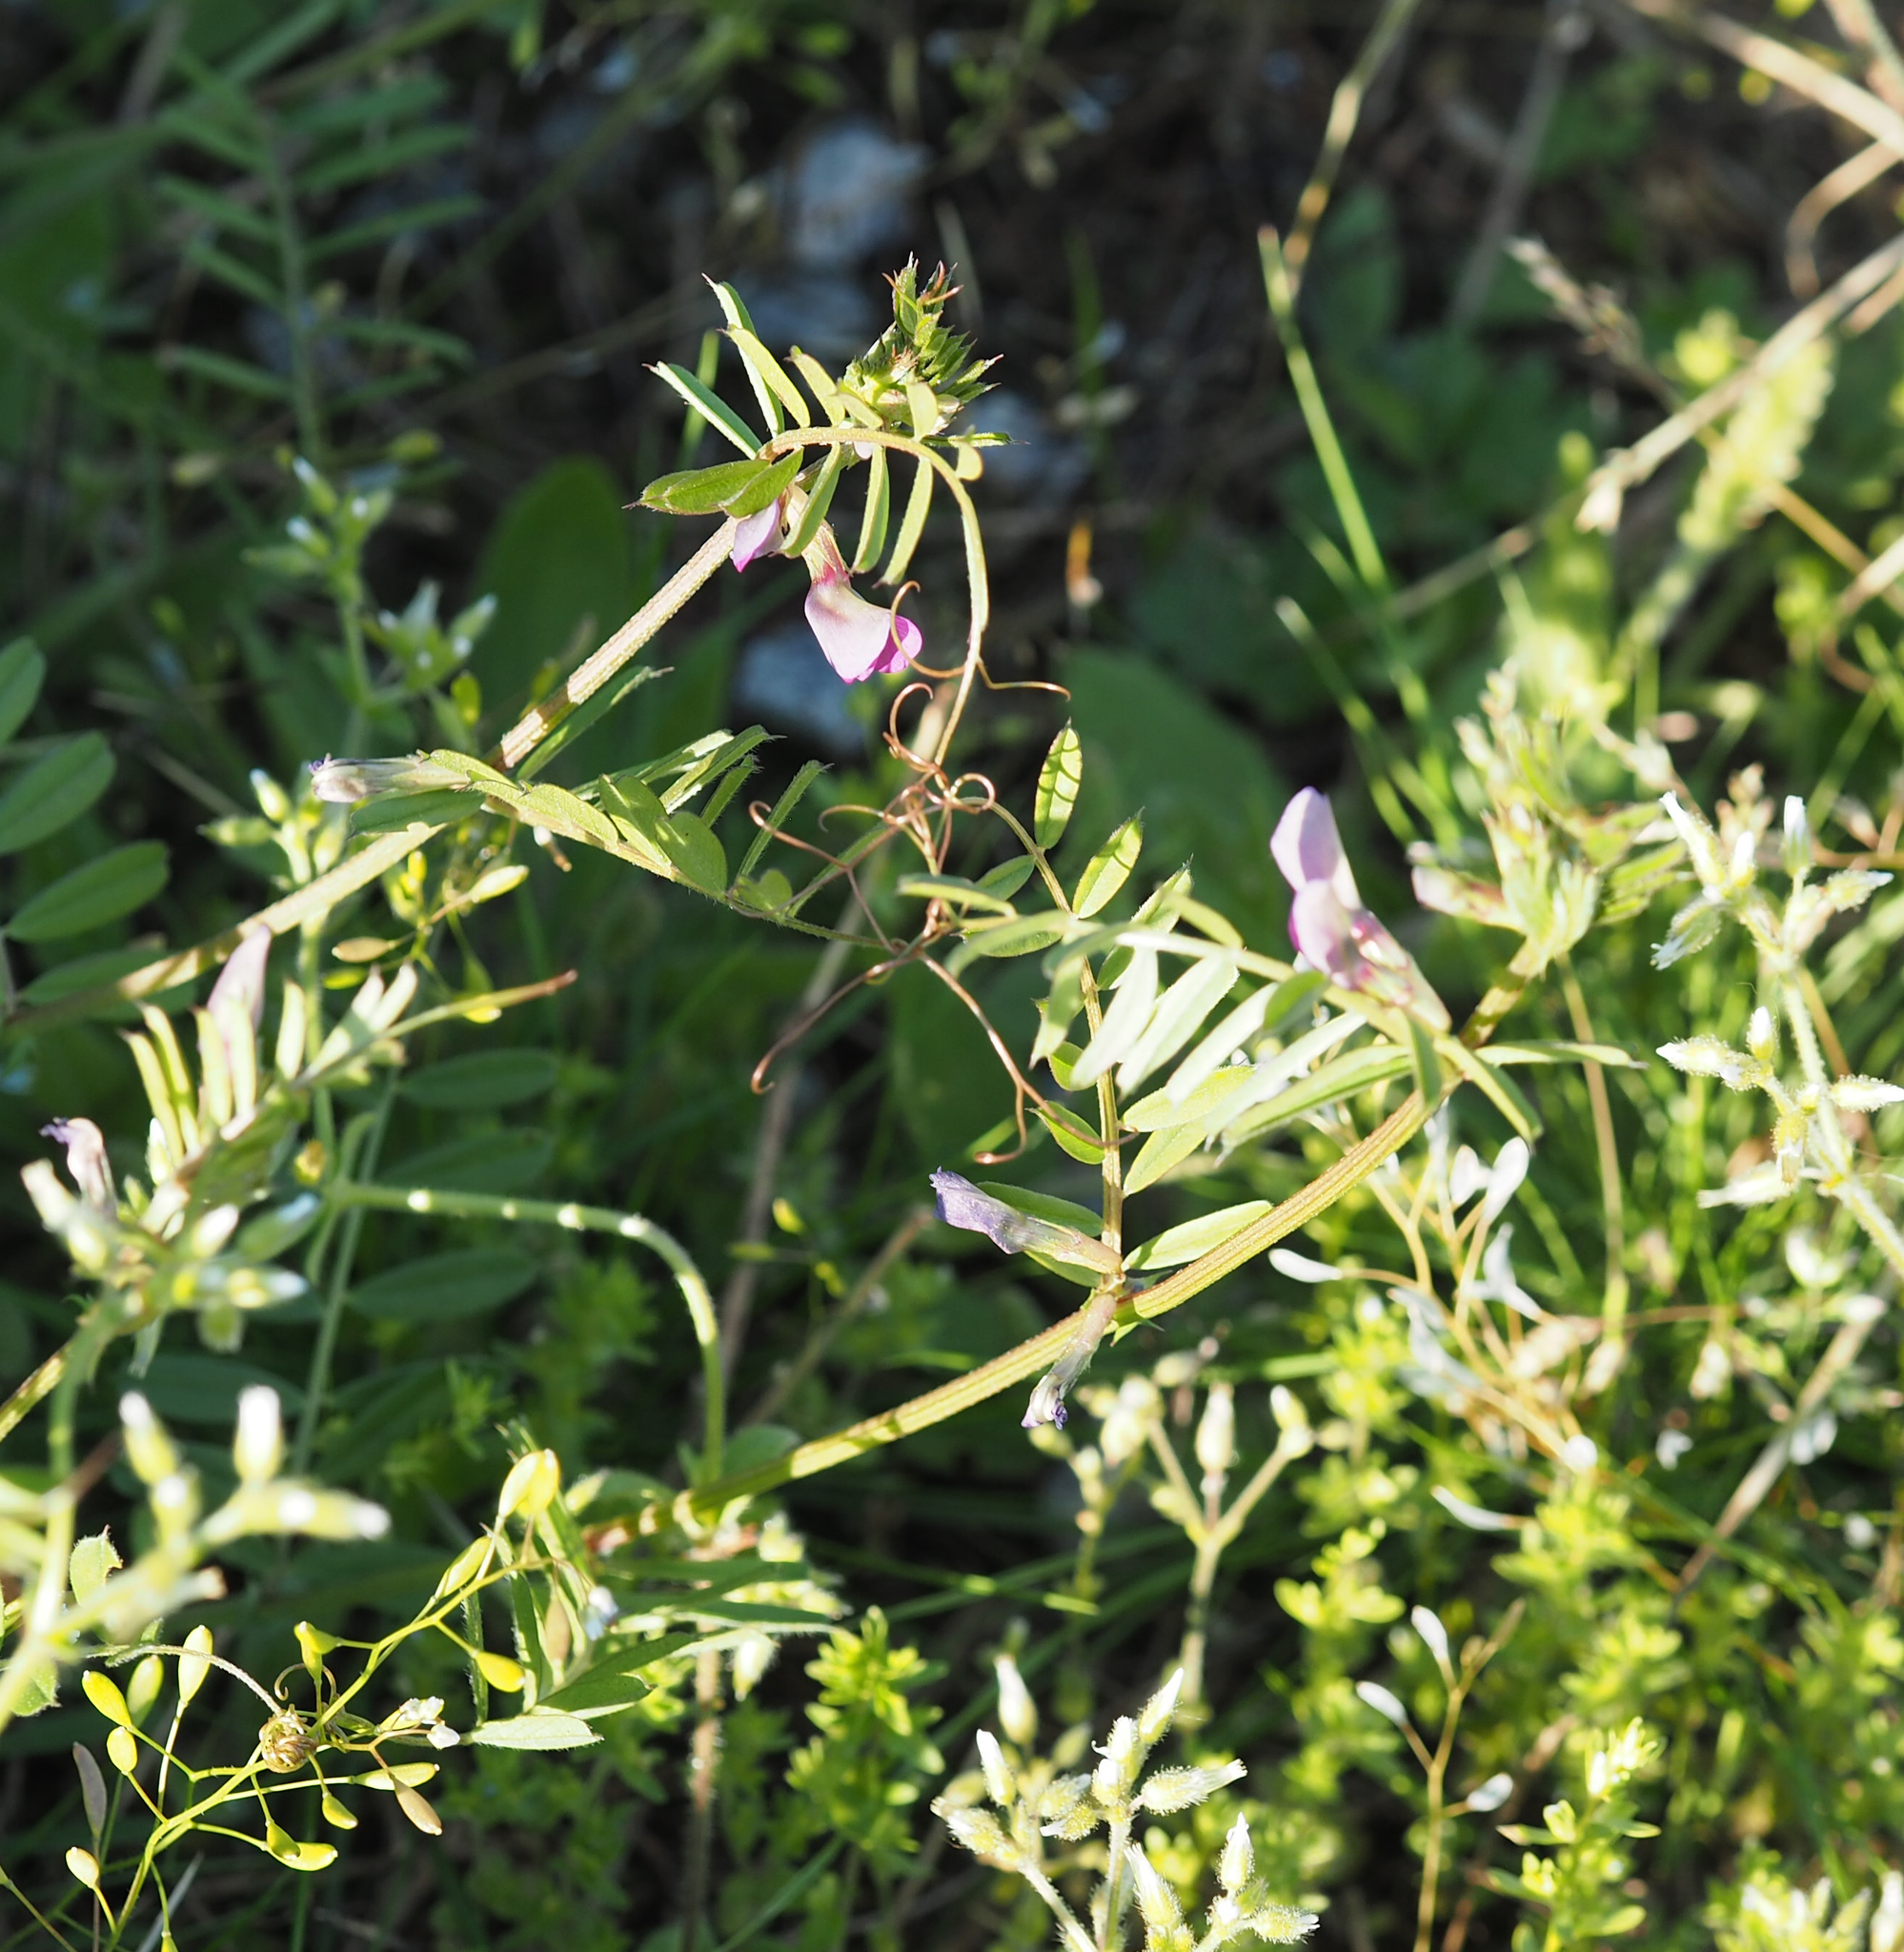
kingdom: Plantae
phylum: Tracheophyta
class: Magnoliopsida
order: Fabales
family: Fabaceae
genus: Vicia
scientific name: Vicia sativa
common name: Garden vetch
